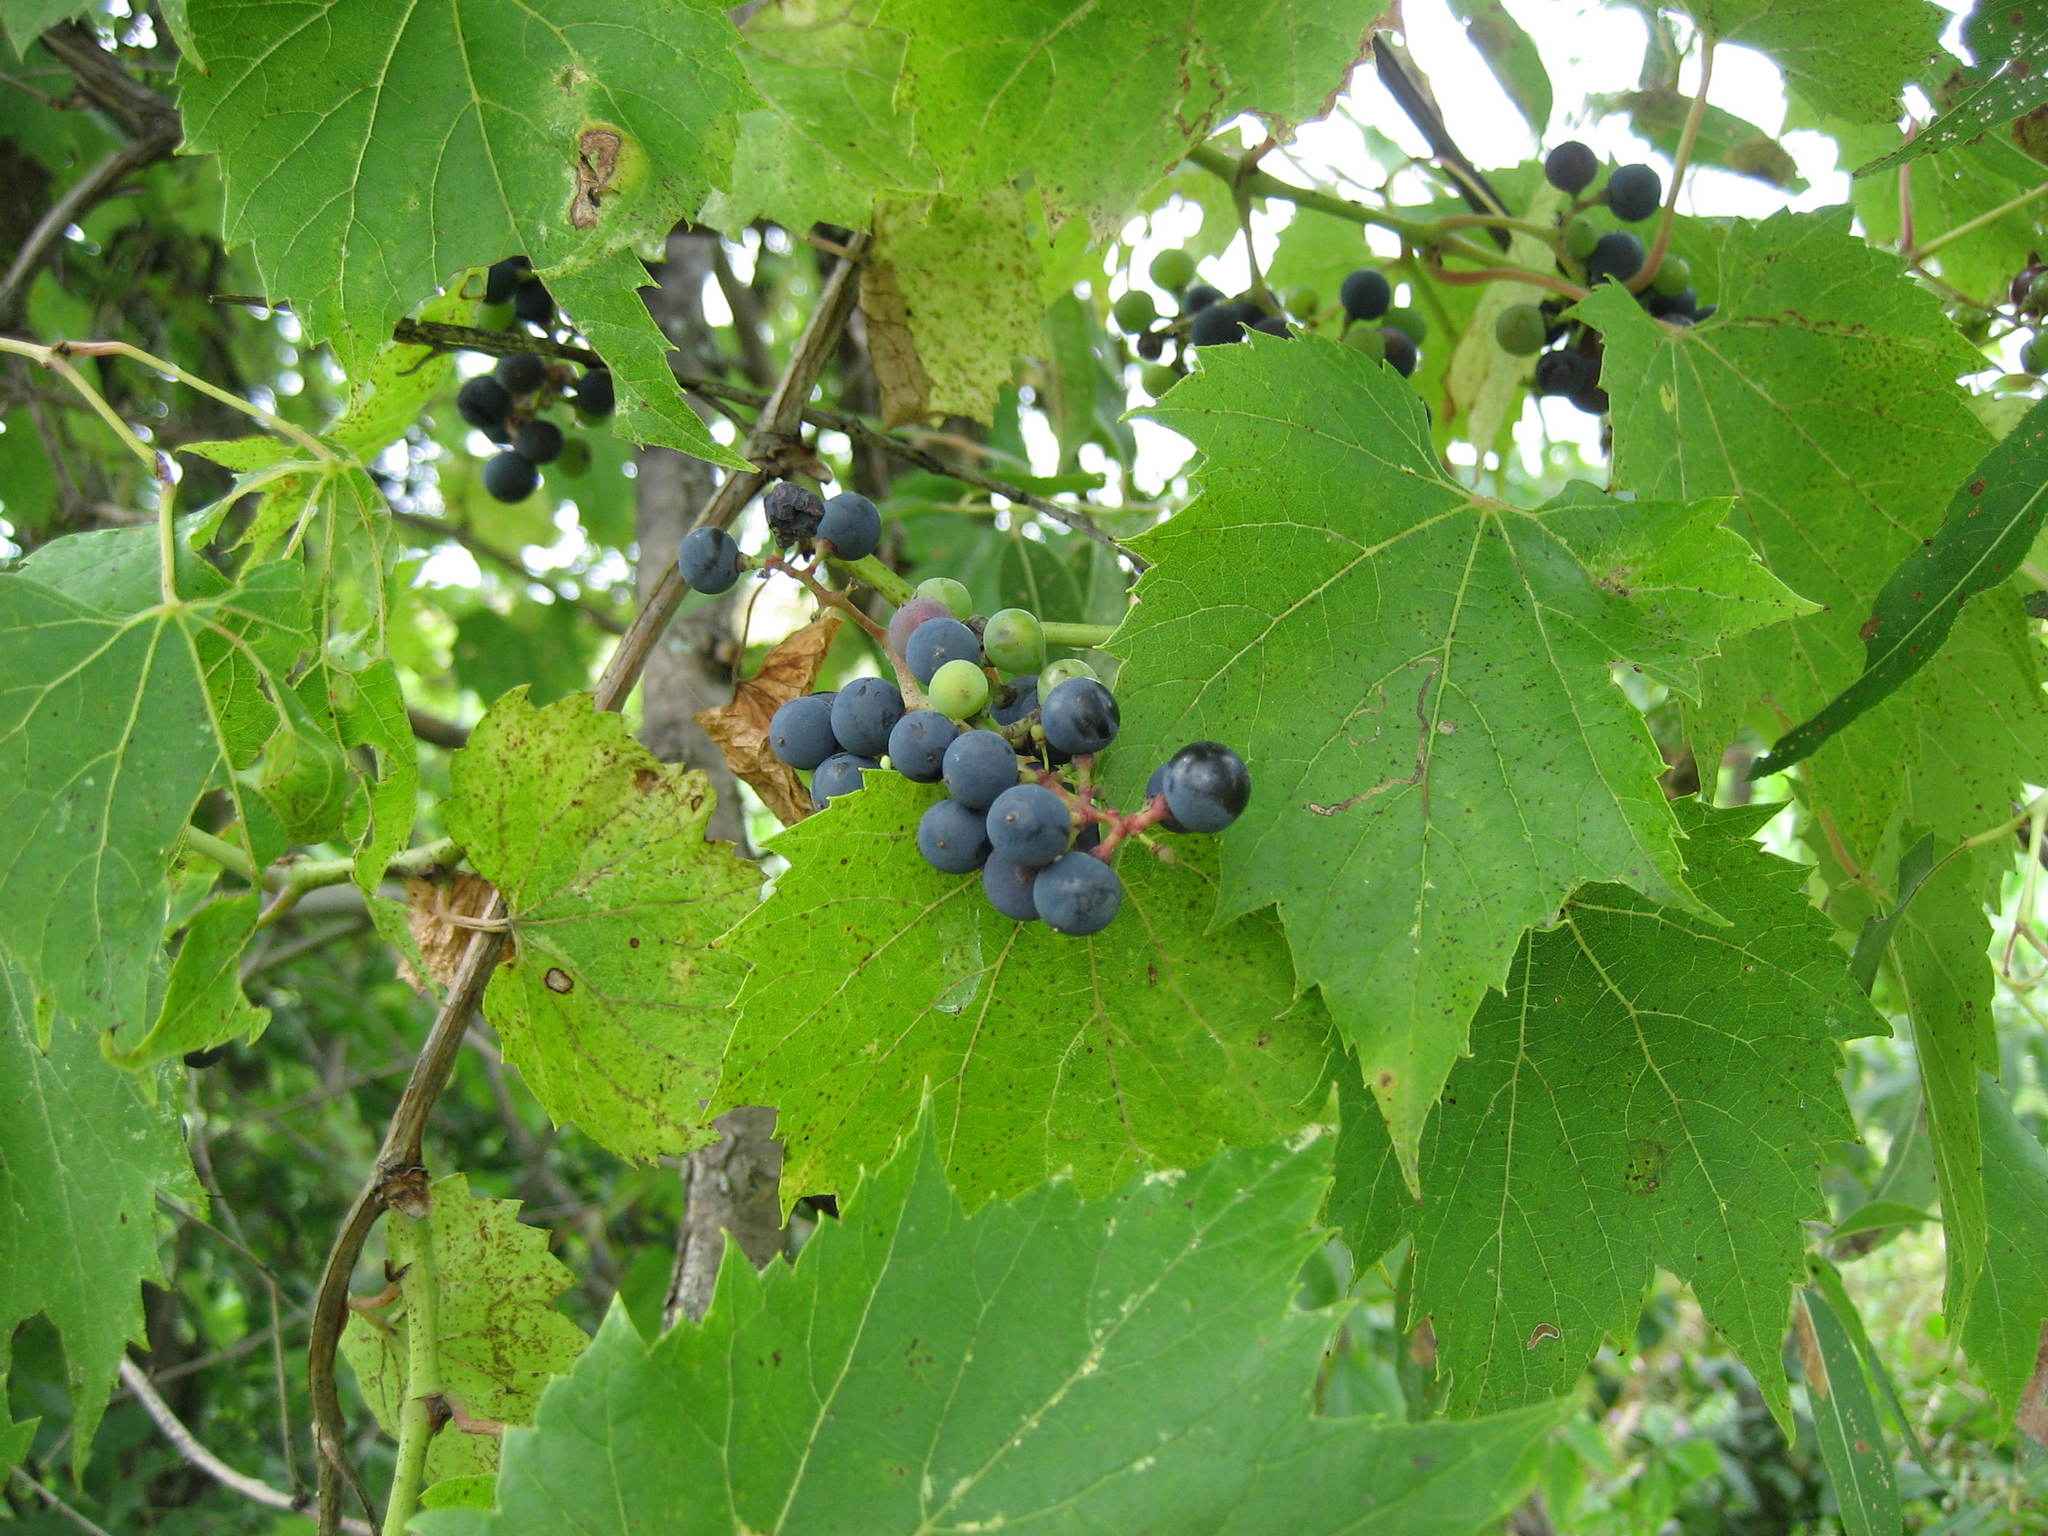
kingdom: Plantae
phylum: Tracheophyta
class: Magnoliopsida
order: Vitales
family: Vitaceae
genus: Vitis
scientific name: Vitis riparia
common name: Frost grape
